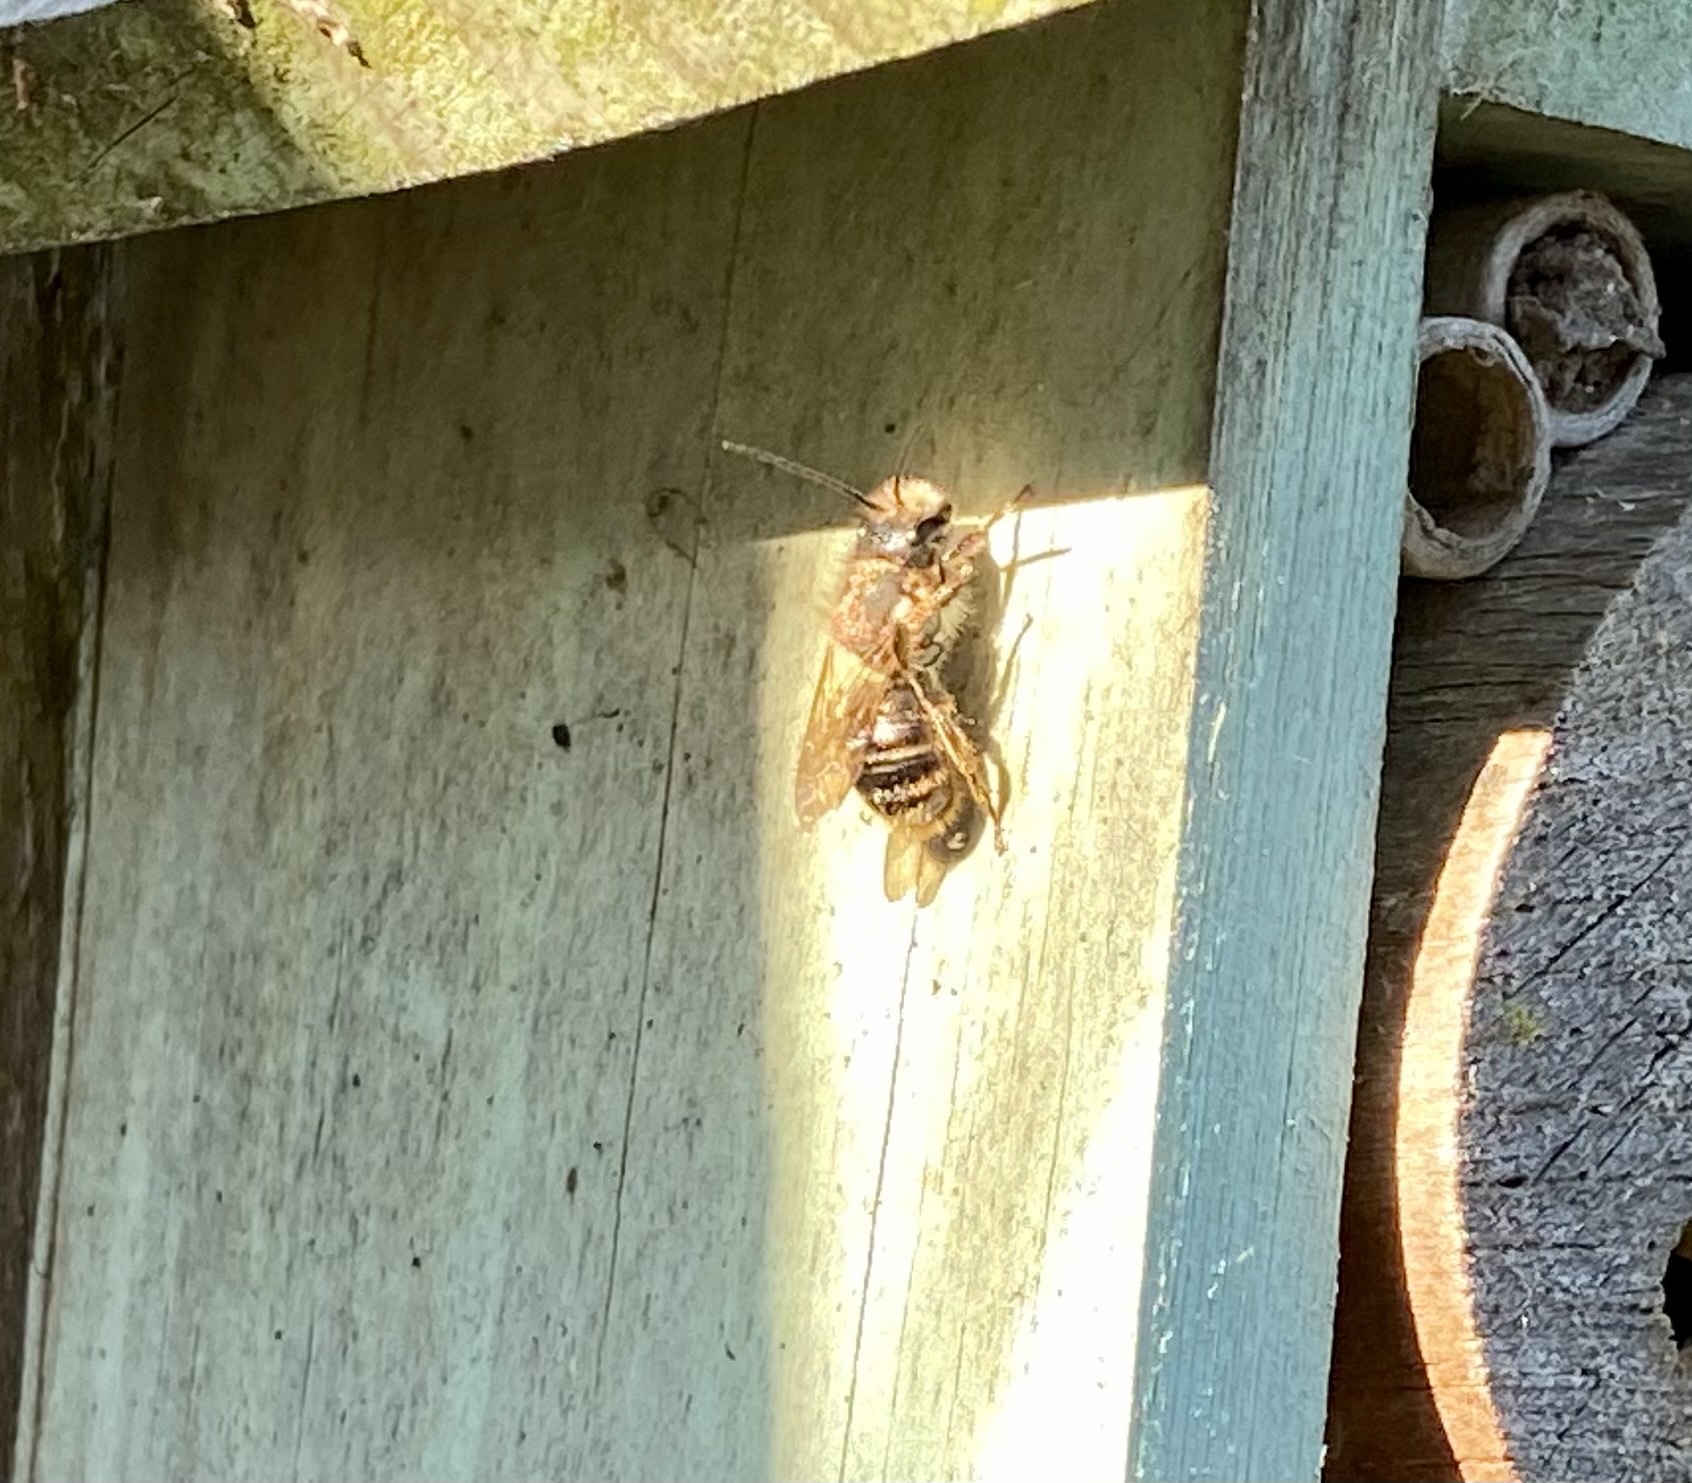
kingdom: Animalia
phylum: Arthropoda
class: Insecta
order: Hymenoptera
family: Megachilidae
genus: Osmia
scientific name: Osmia bicornis
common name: Red mason bee
